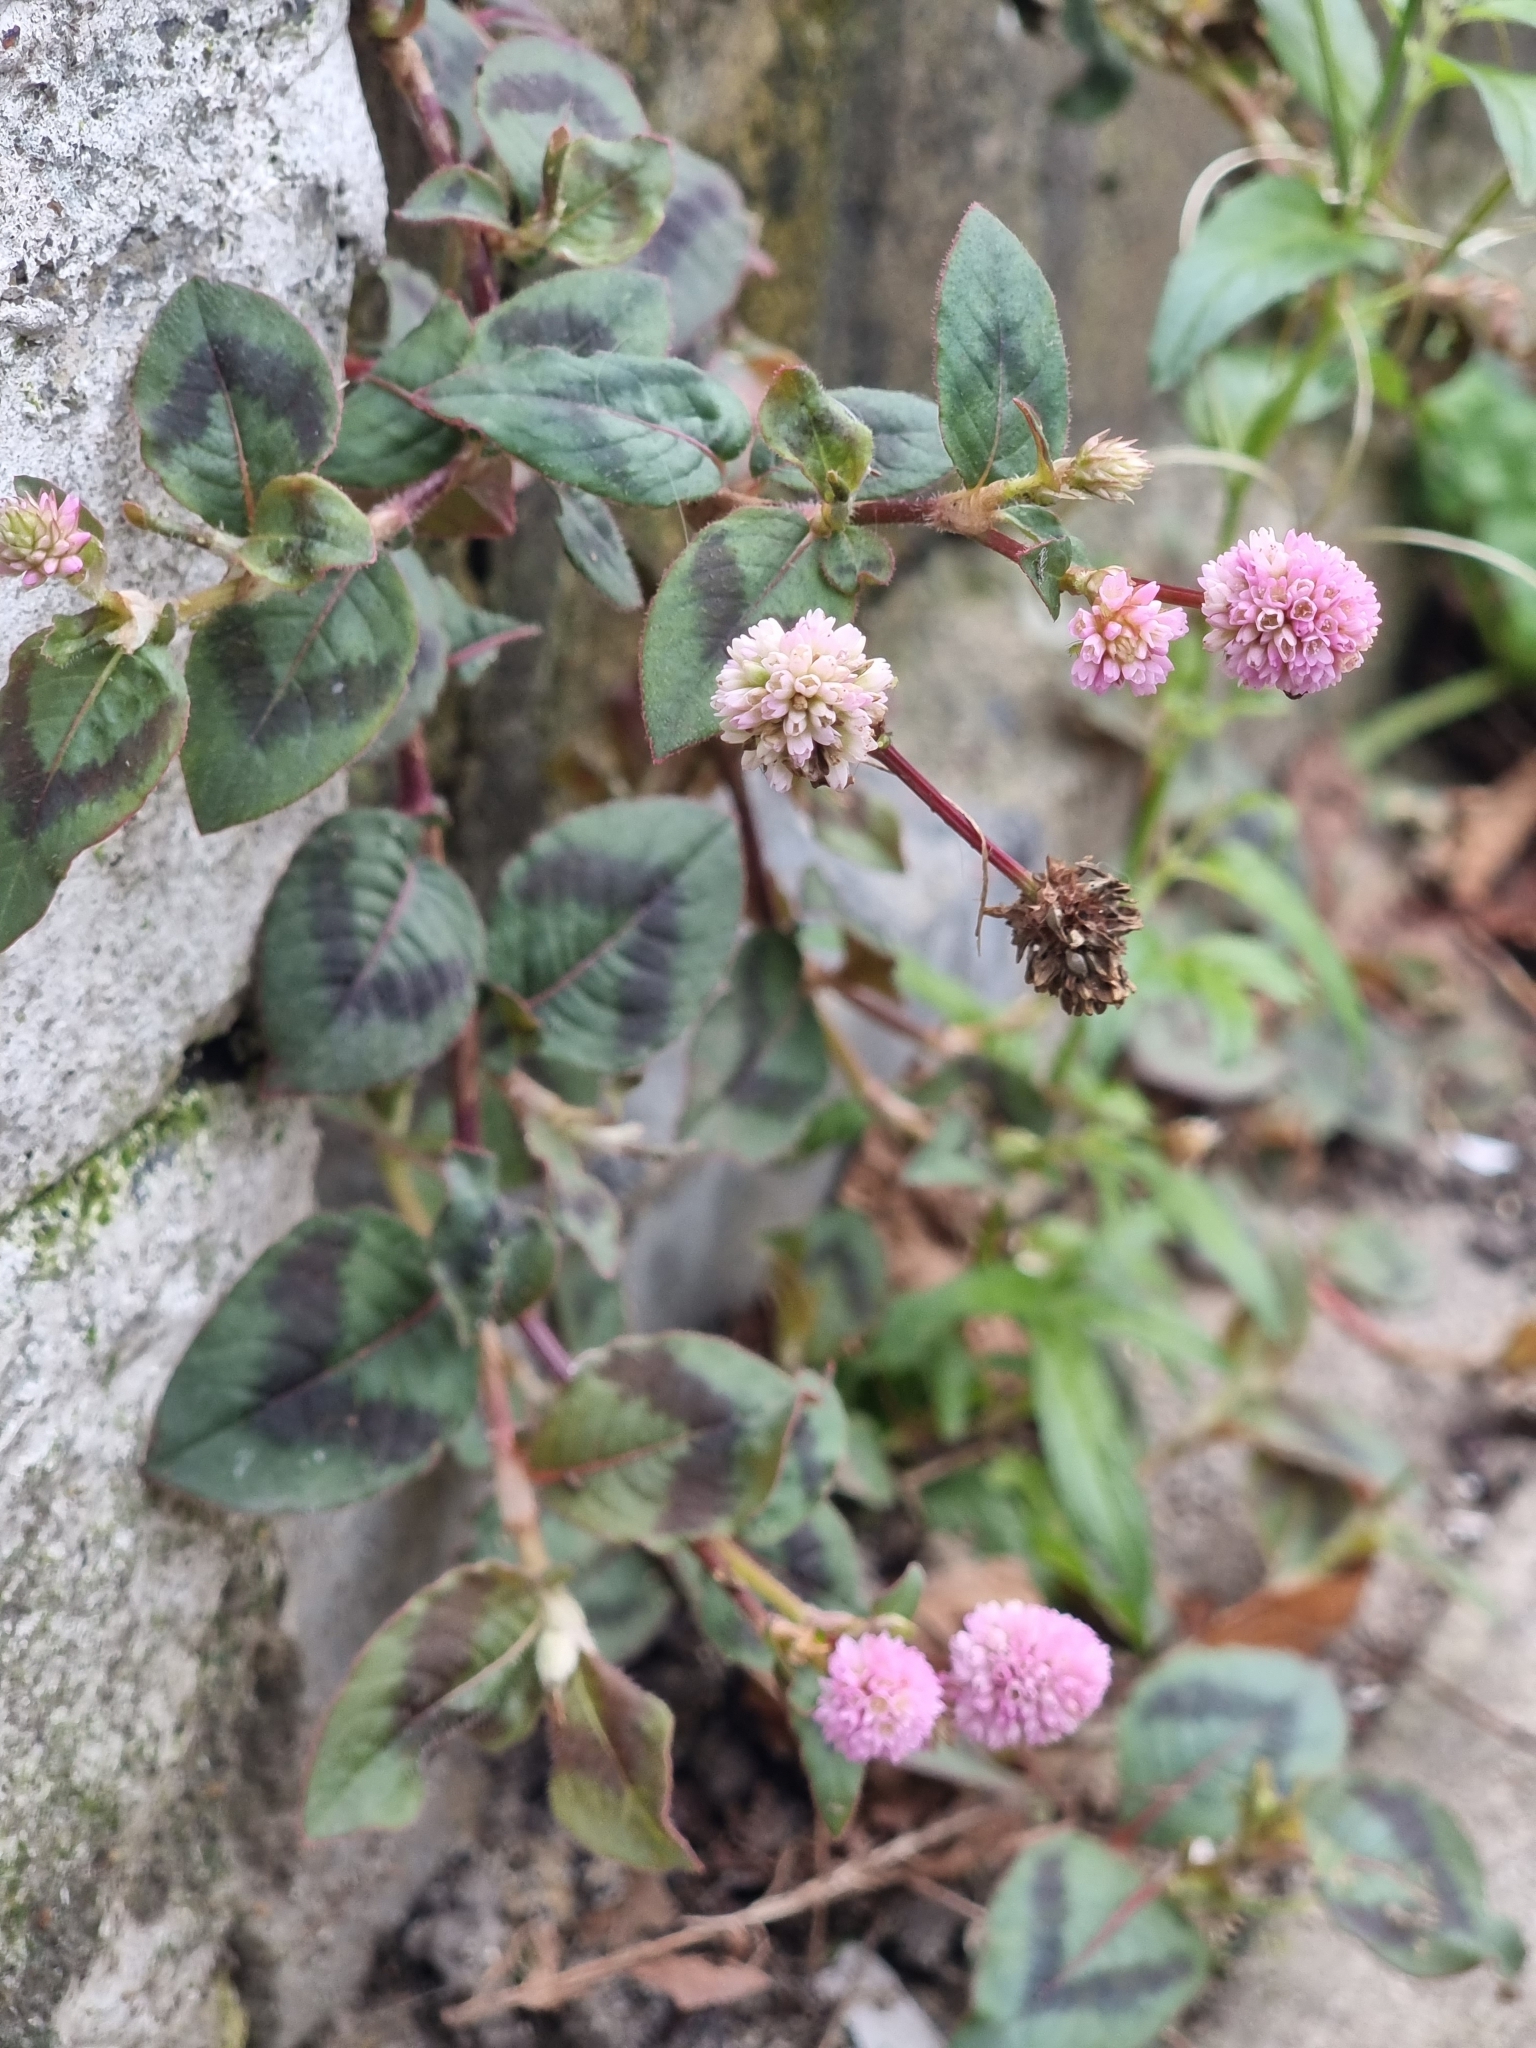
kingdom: Plantae
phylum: Tracheophyta
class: Magnoliopsida
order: Caryophyllales
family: Polygonaceae
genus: Persicaria
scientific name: Persicaria capitata
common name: Pinkhead smartweed
